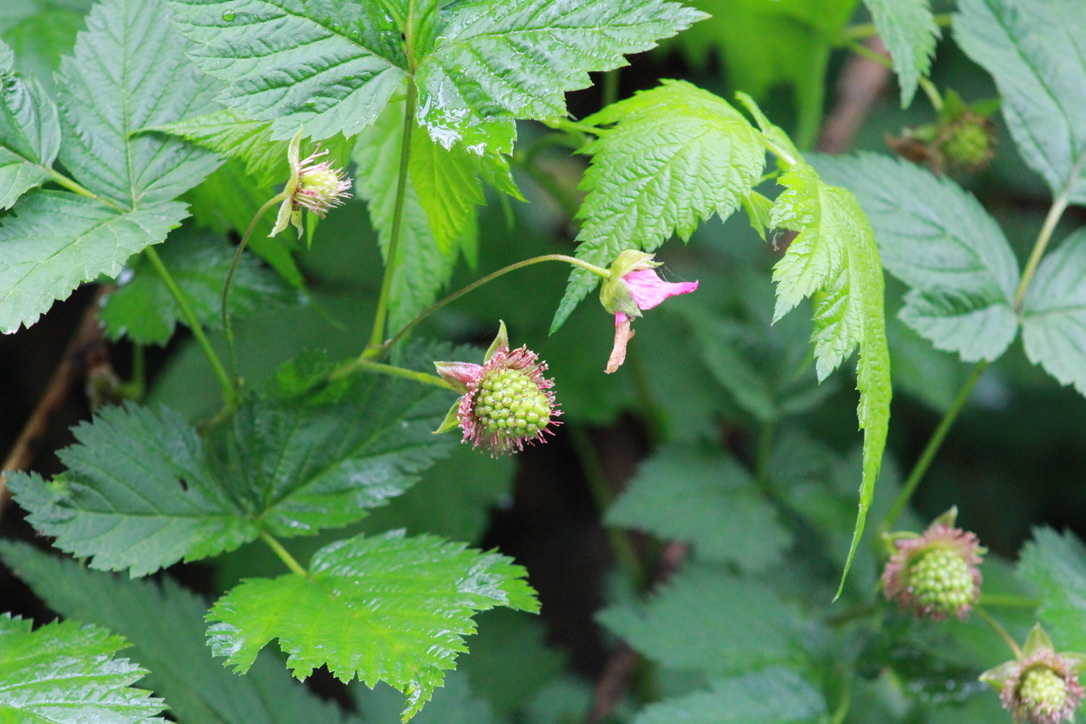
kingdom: Plantae
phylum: Tracheophyta
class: Magnoliopsida
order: Rosales
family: Rosaceae
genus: Rubus
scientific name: Rubus spectabilis
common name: Salmonberry
